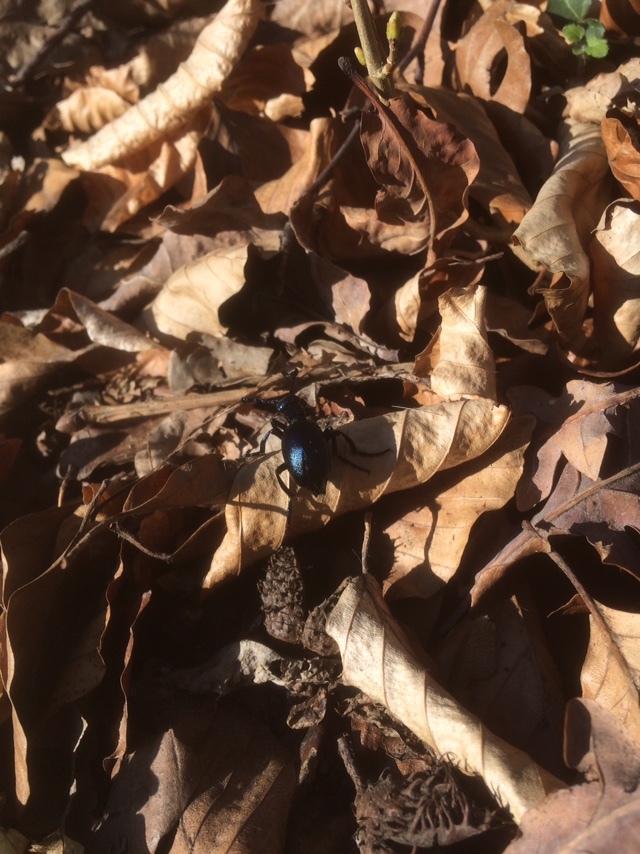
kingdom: Animalia
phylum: Arthropoda
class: Insecta
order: Coleoptera
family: Meloidae
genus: Meloe
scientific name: Meloe violaceus
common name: Violet oil-beetle
